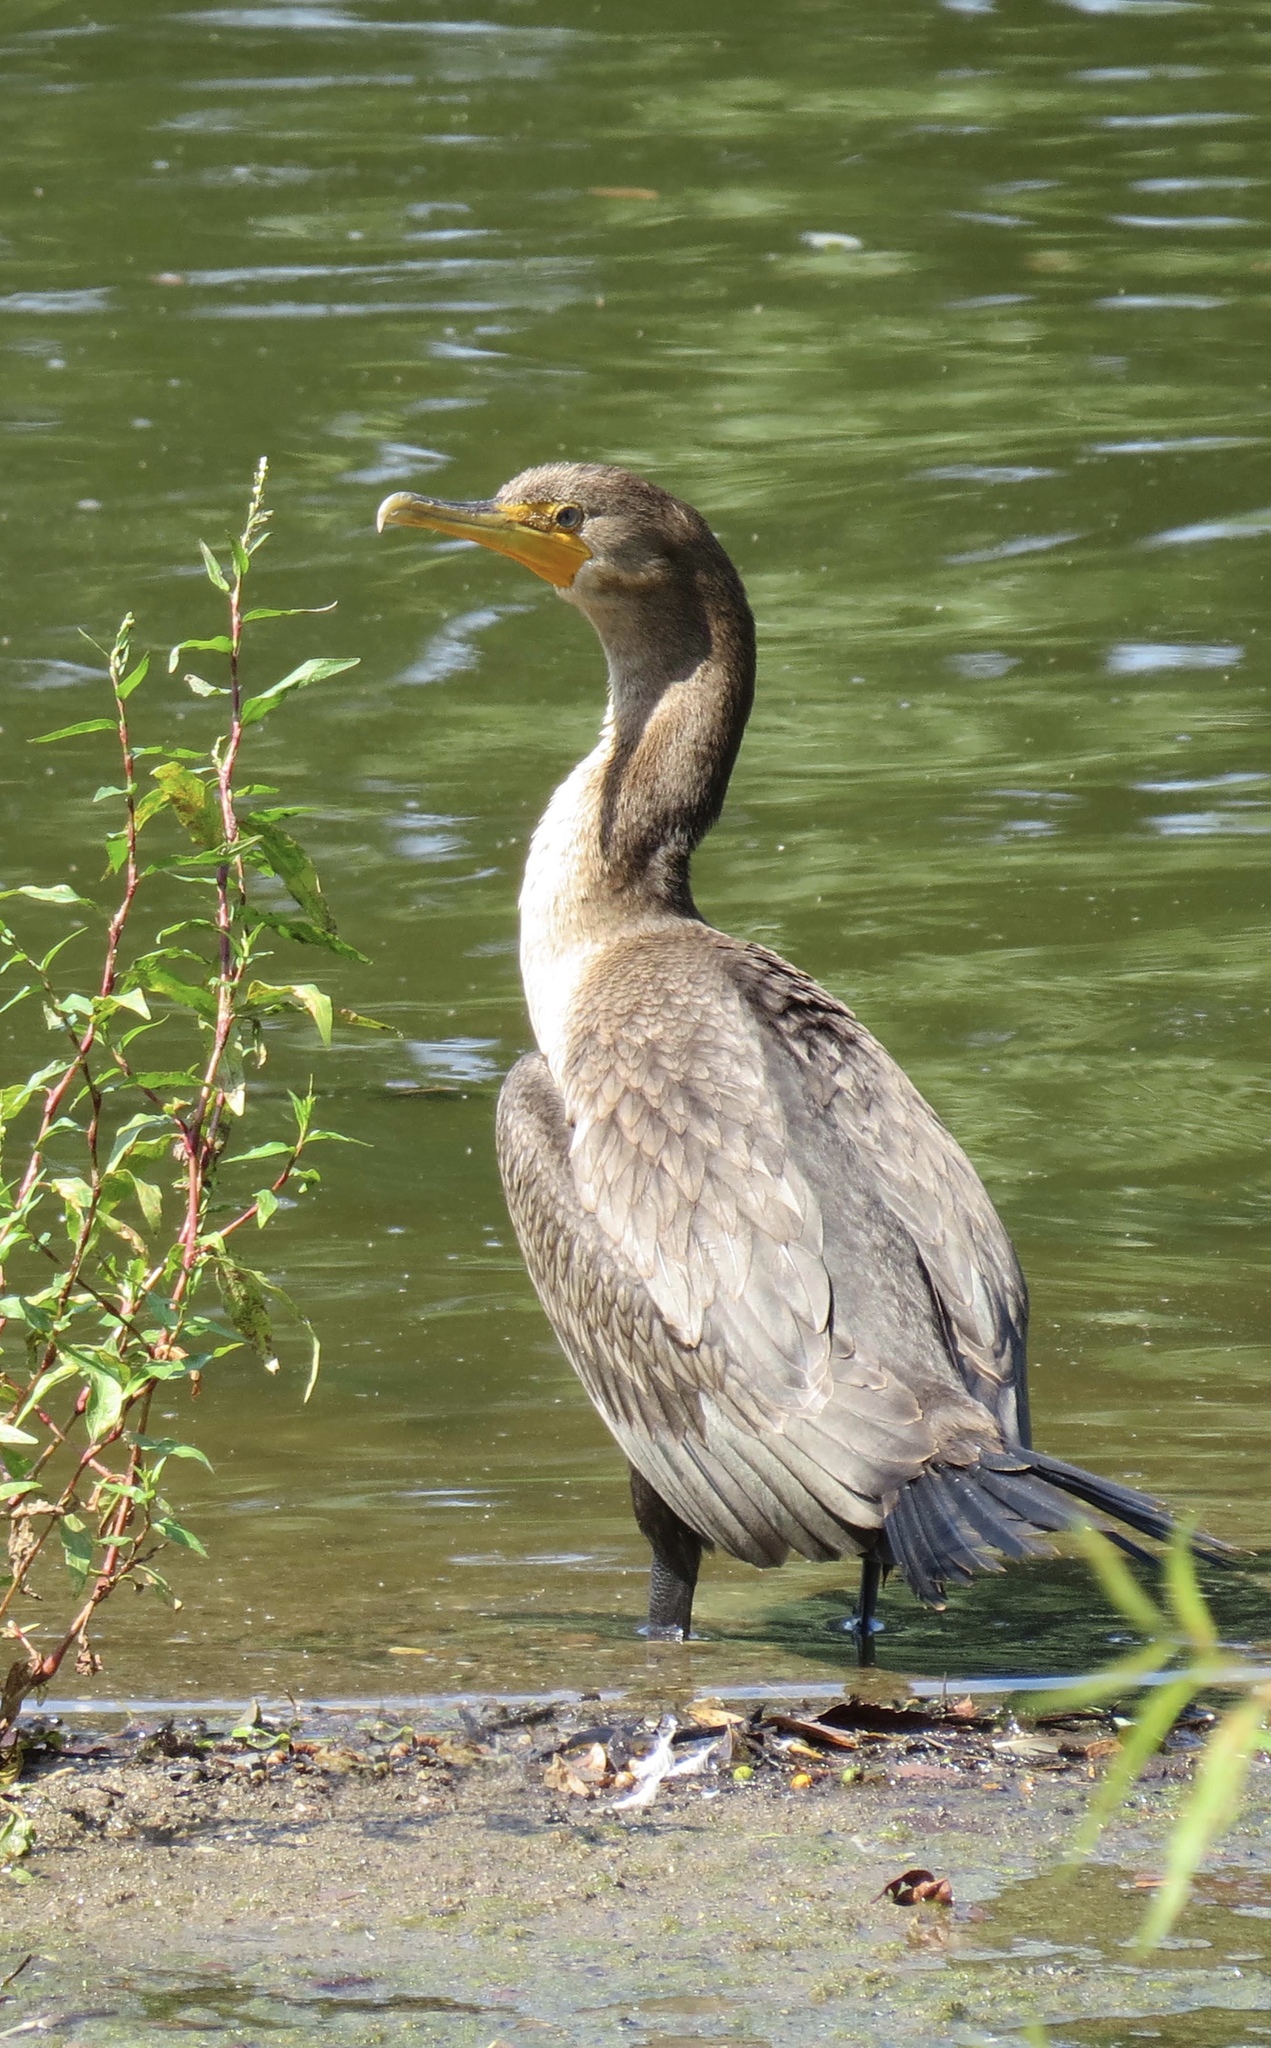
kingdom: Animalia
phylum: Chordata
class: Aves
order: Suliformes
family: Phalacrocoracidae
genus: Phalacrocorax
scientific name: Phalacrocorax auritus
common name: Double-crested cormorant
